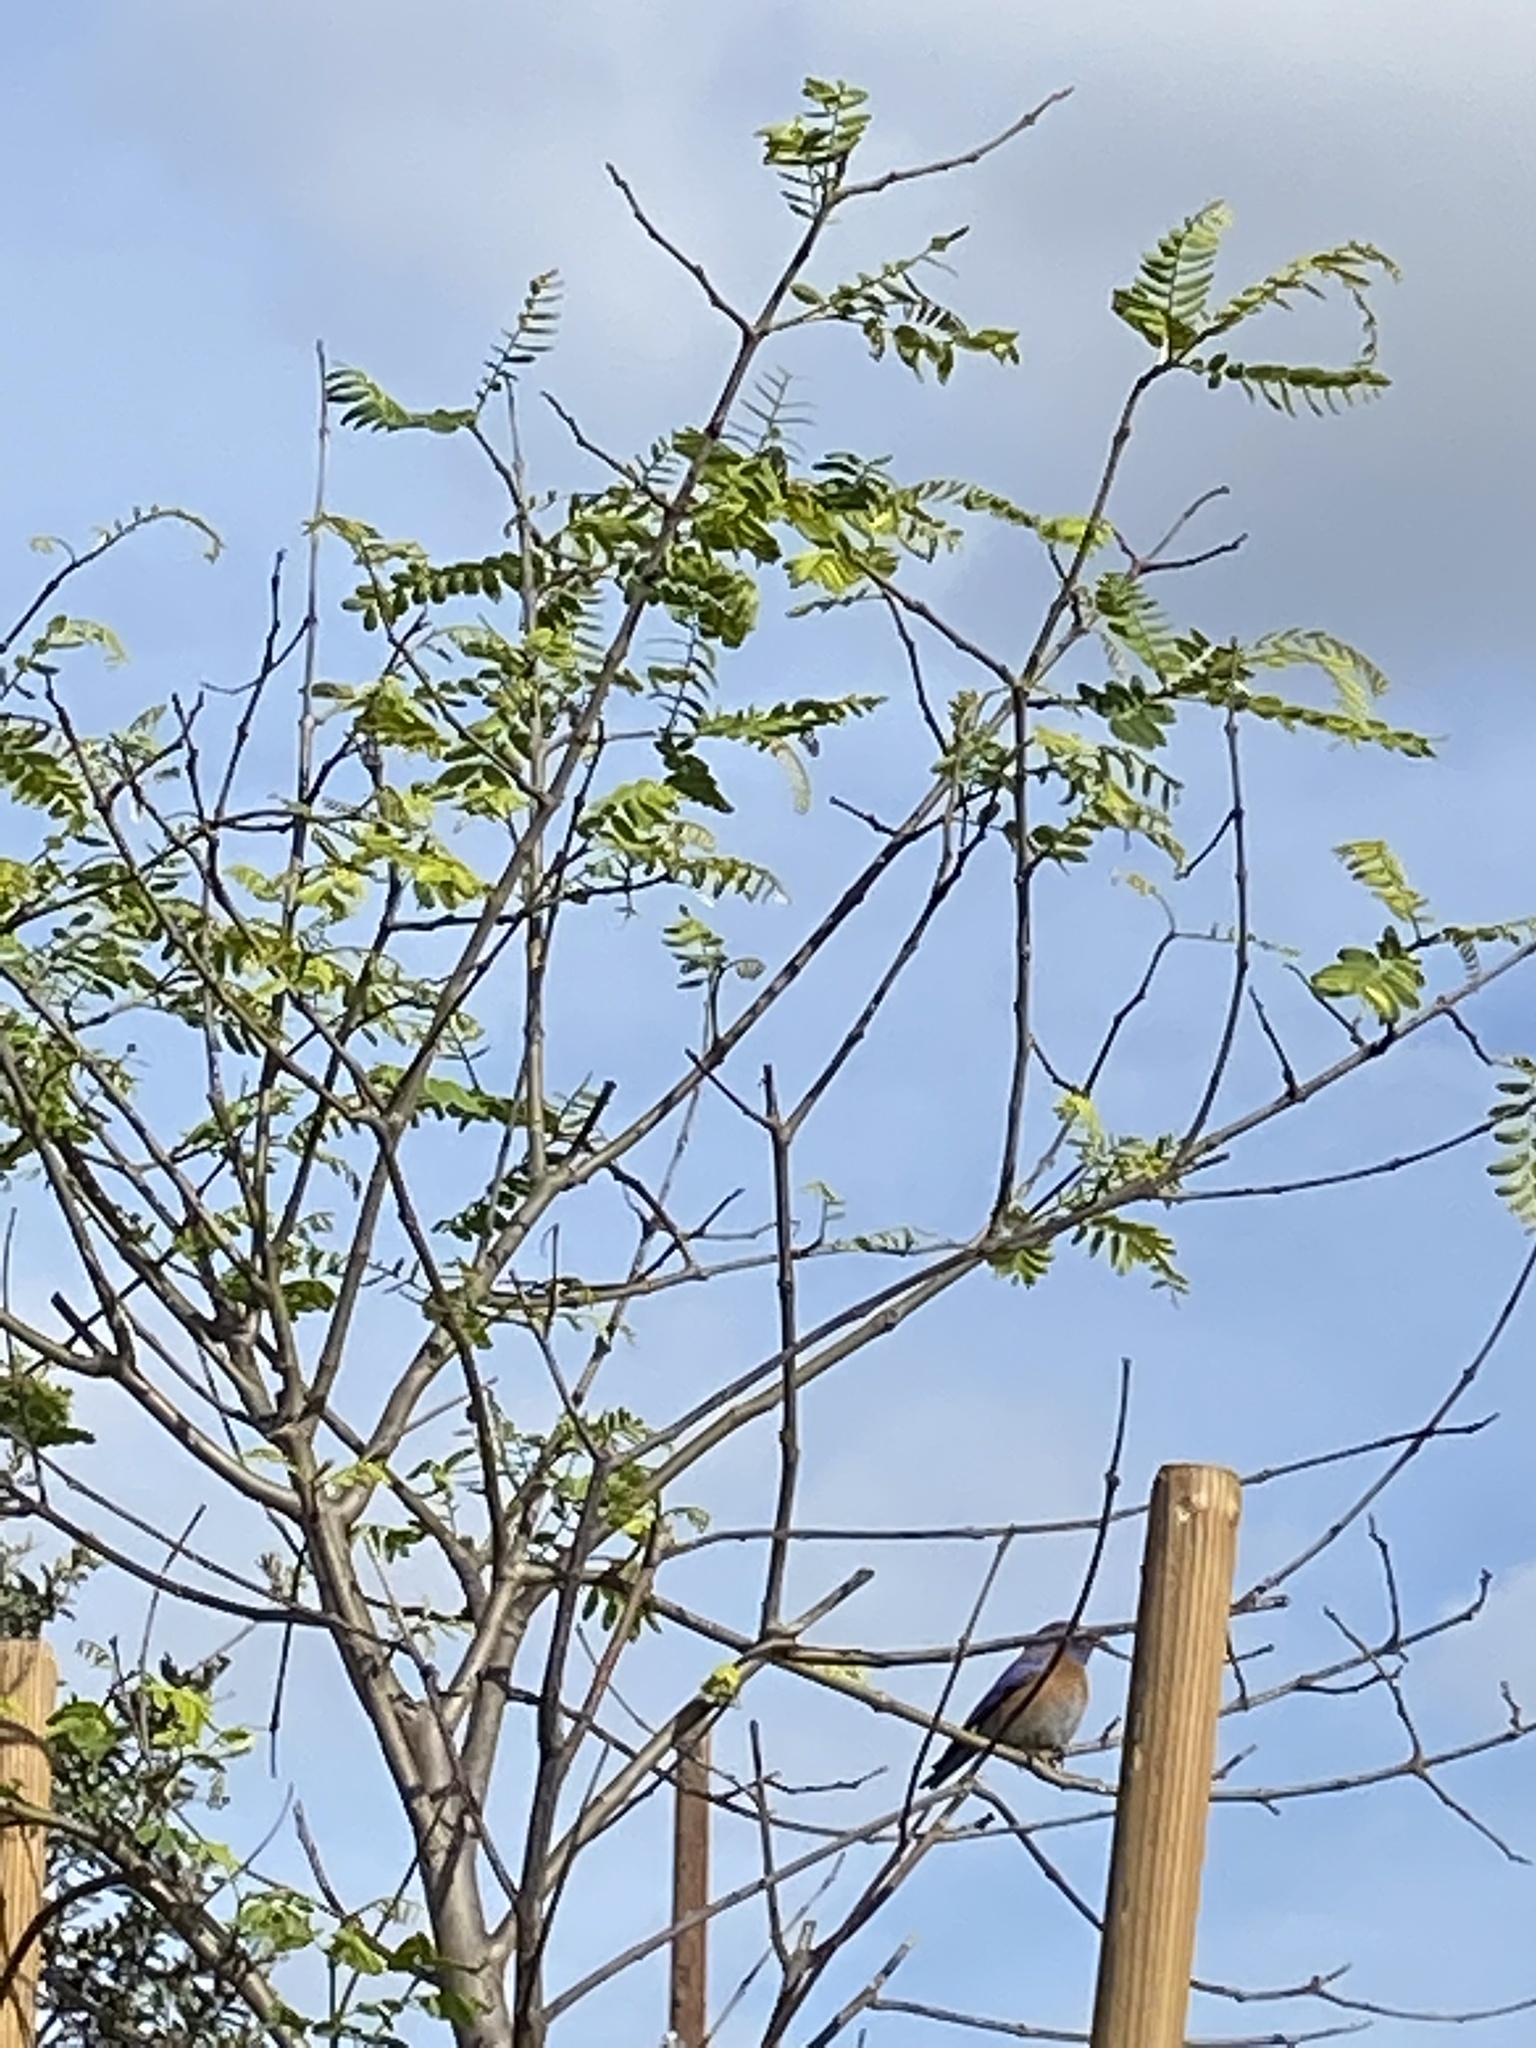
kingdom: Animalia
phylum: Chordata
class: Aves
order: Passeriformes
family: Turdidae
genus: Sialia
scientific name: Sialia mexicana
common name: Western bluebird
